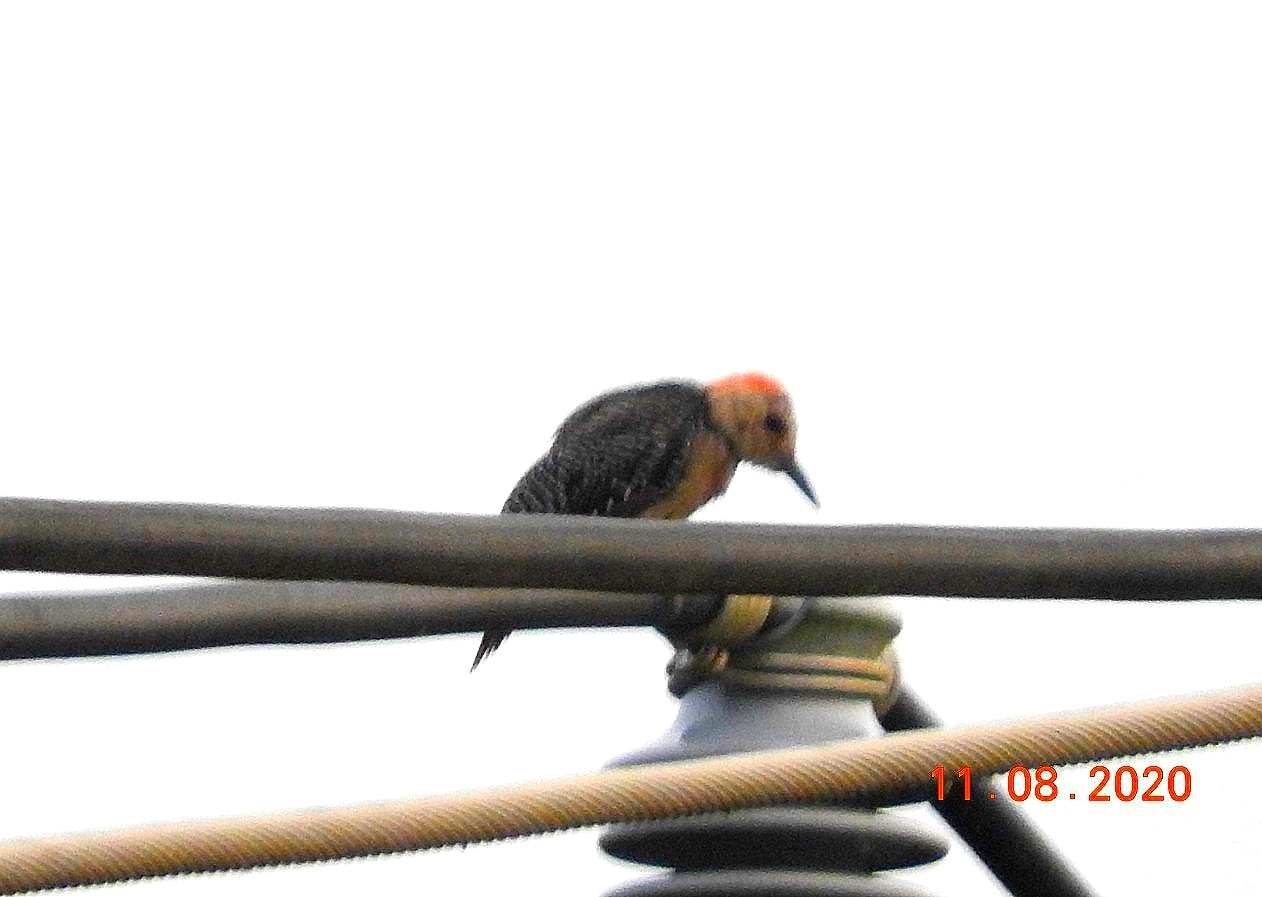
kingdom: Animalia
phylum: Chordata
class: Aves
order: Piciformes
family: Picidae
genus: Melanerpes
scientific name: Melanerpes aurifrons
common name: Golden-fronted woodpecker
